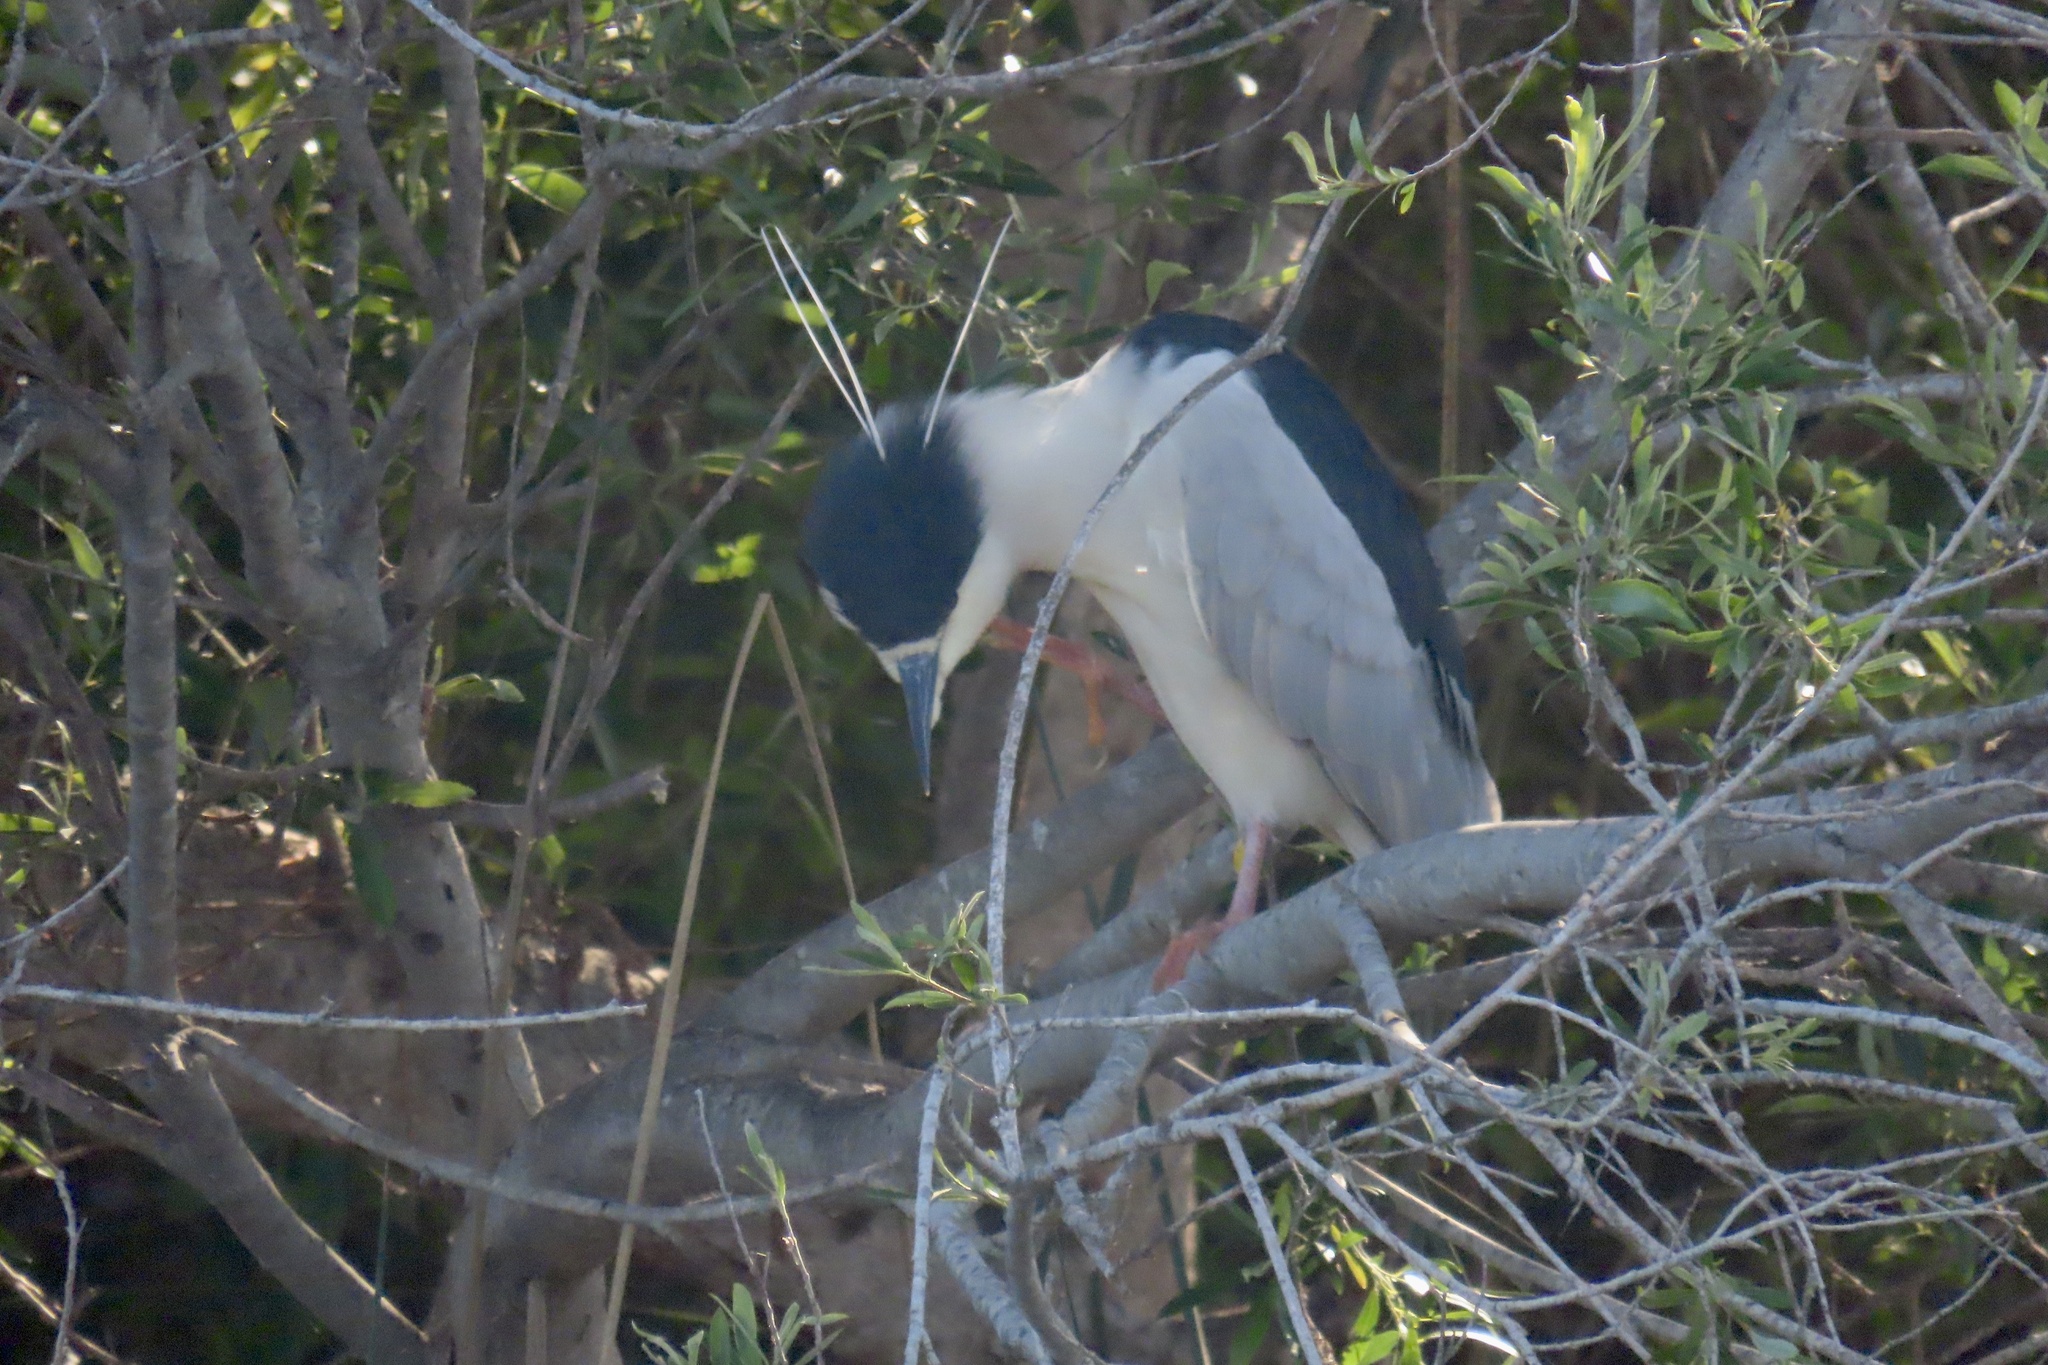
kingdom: Animalia
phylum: Chordata
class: Aves
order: Pelecaniformes
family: Ardeidae
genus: Nycticorax
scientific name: Nycticorax nycticorax
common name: Black-crowned night heron
